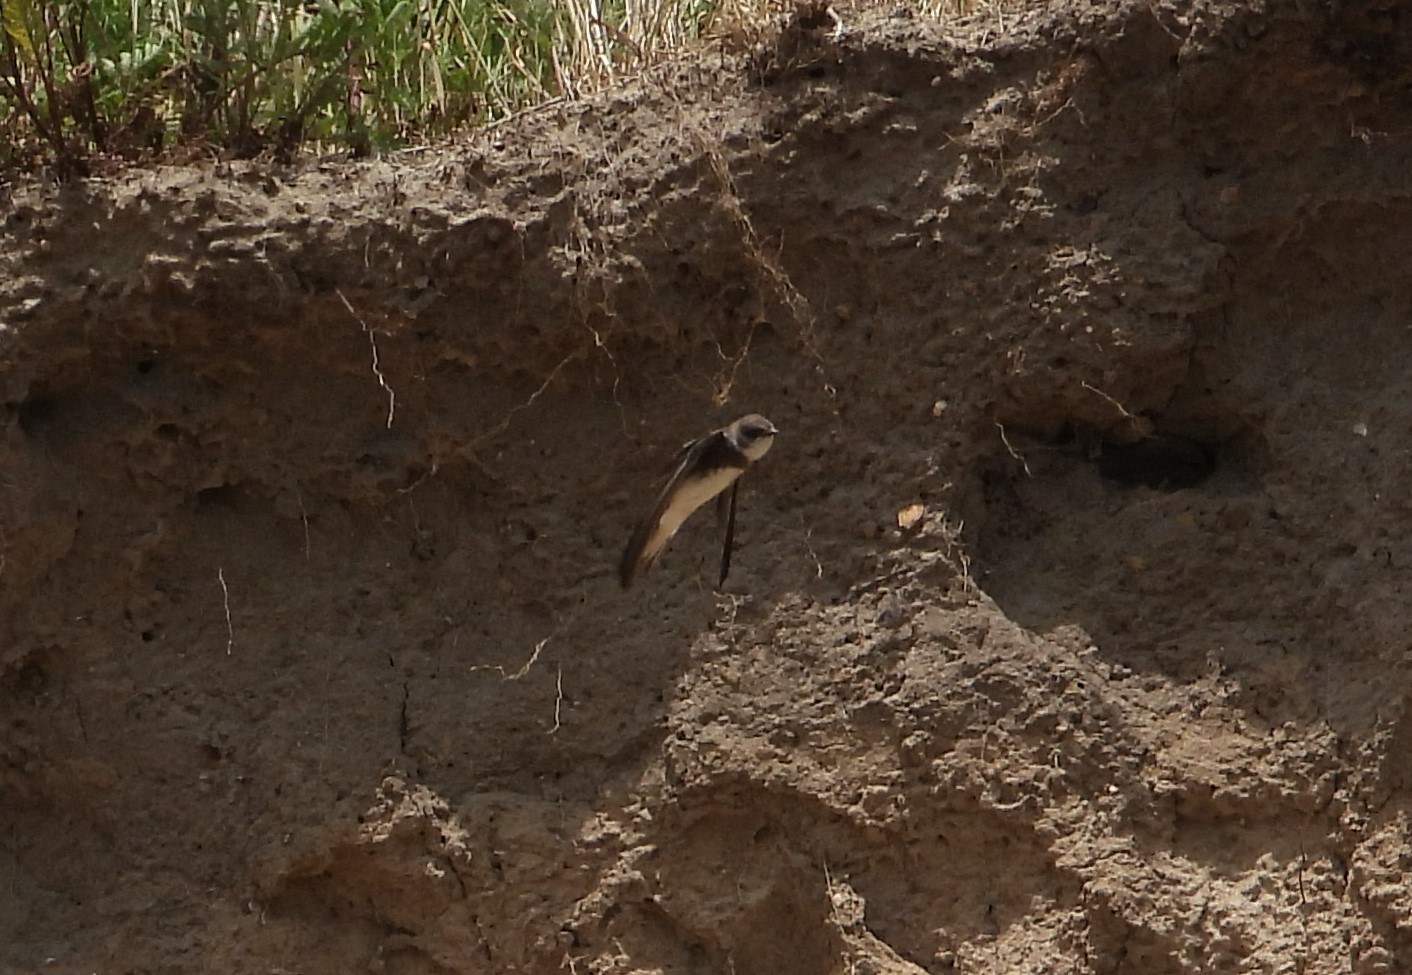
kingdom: Animalia
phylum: Chordata
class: Aves
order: Passeriformes
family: Hirundinidae
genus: Riparia
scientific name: Riparia riparia
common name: Sand martin
